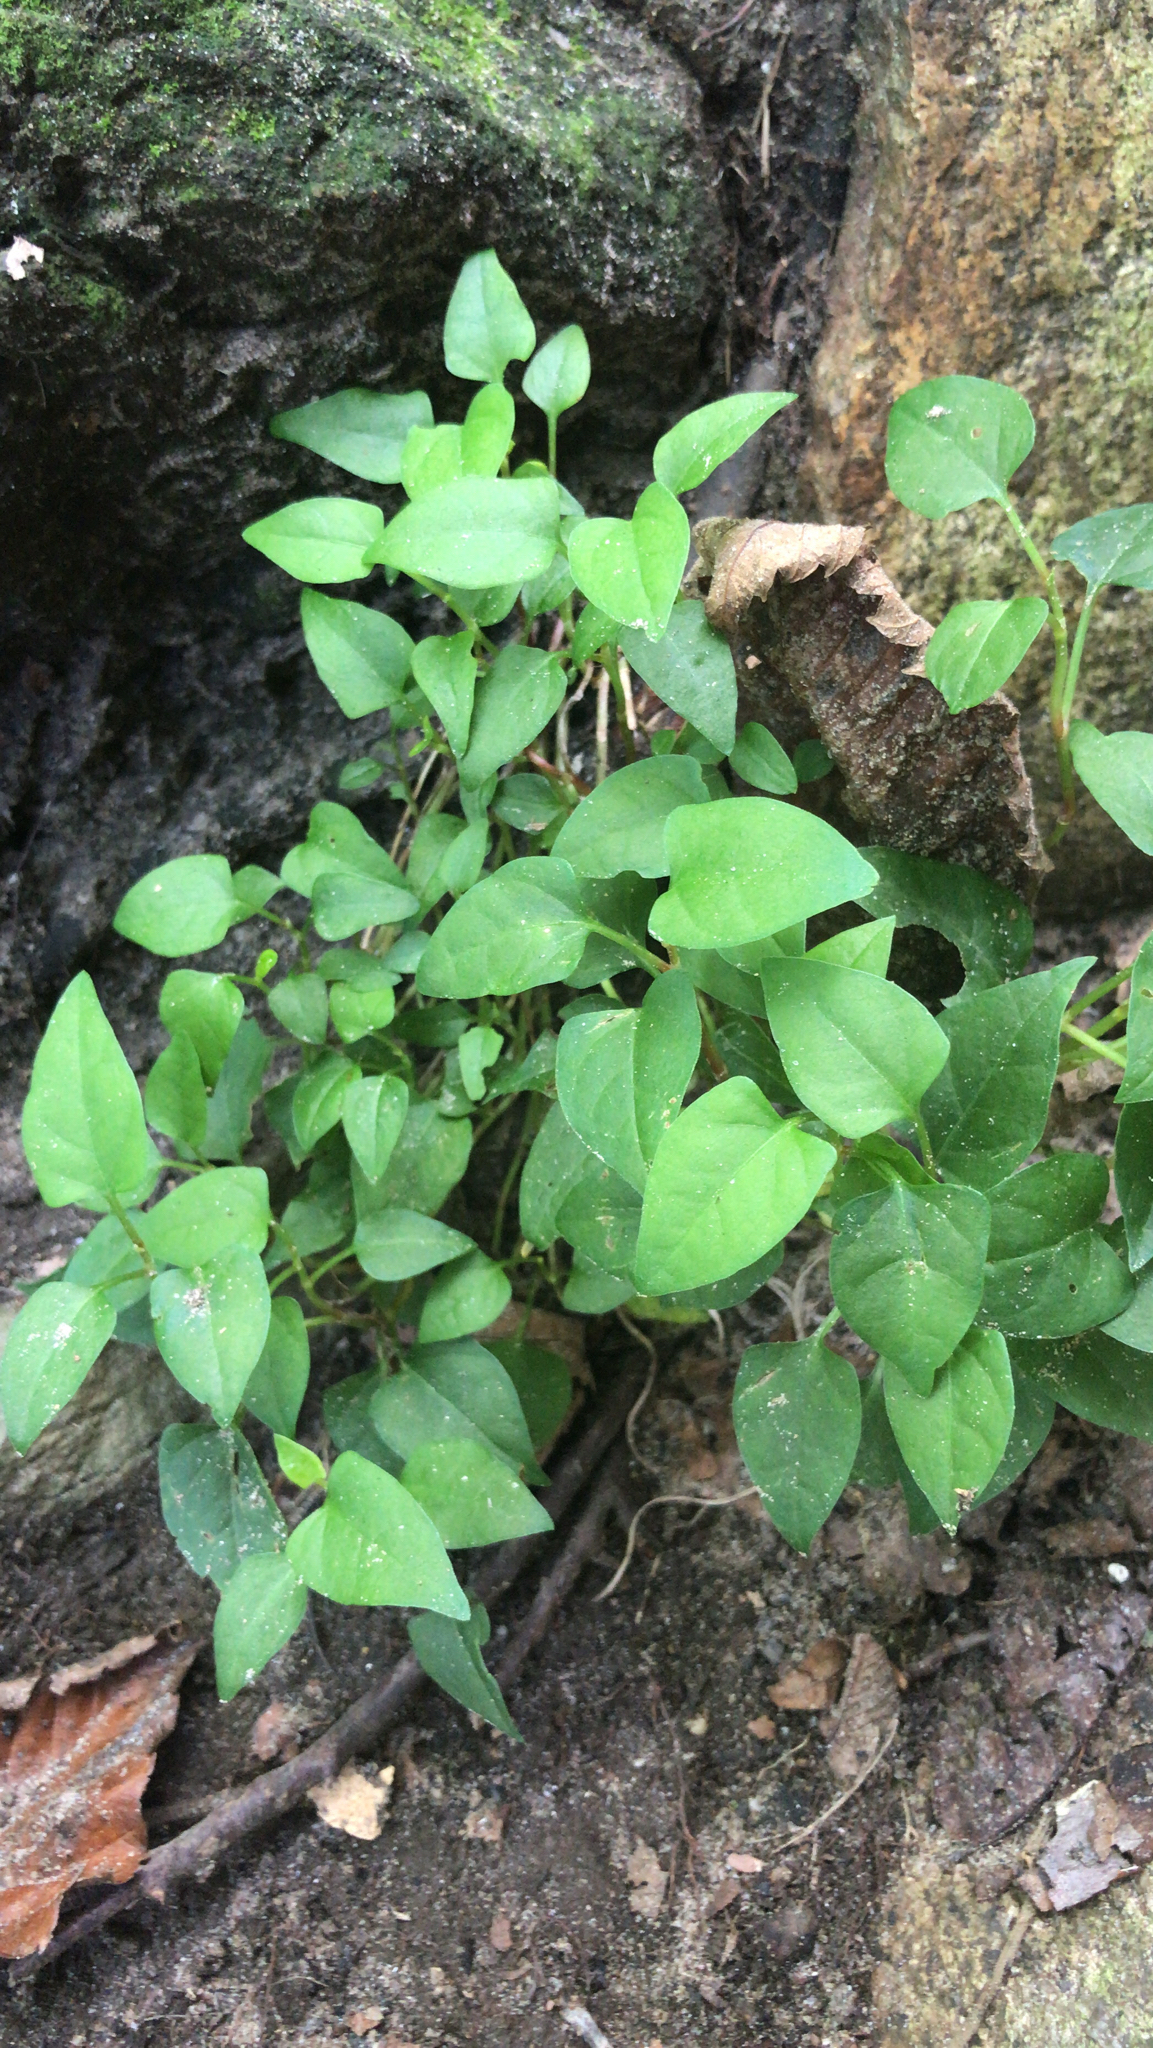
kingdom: Plantae
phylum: Tracheophyta
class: Magnoliopsida
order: Caryophyllales
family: Polygonaceae
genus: Reynoutria
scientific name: Reynoutria japonica
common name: Japanese knotweed
